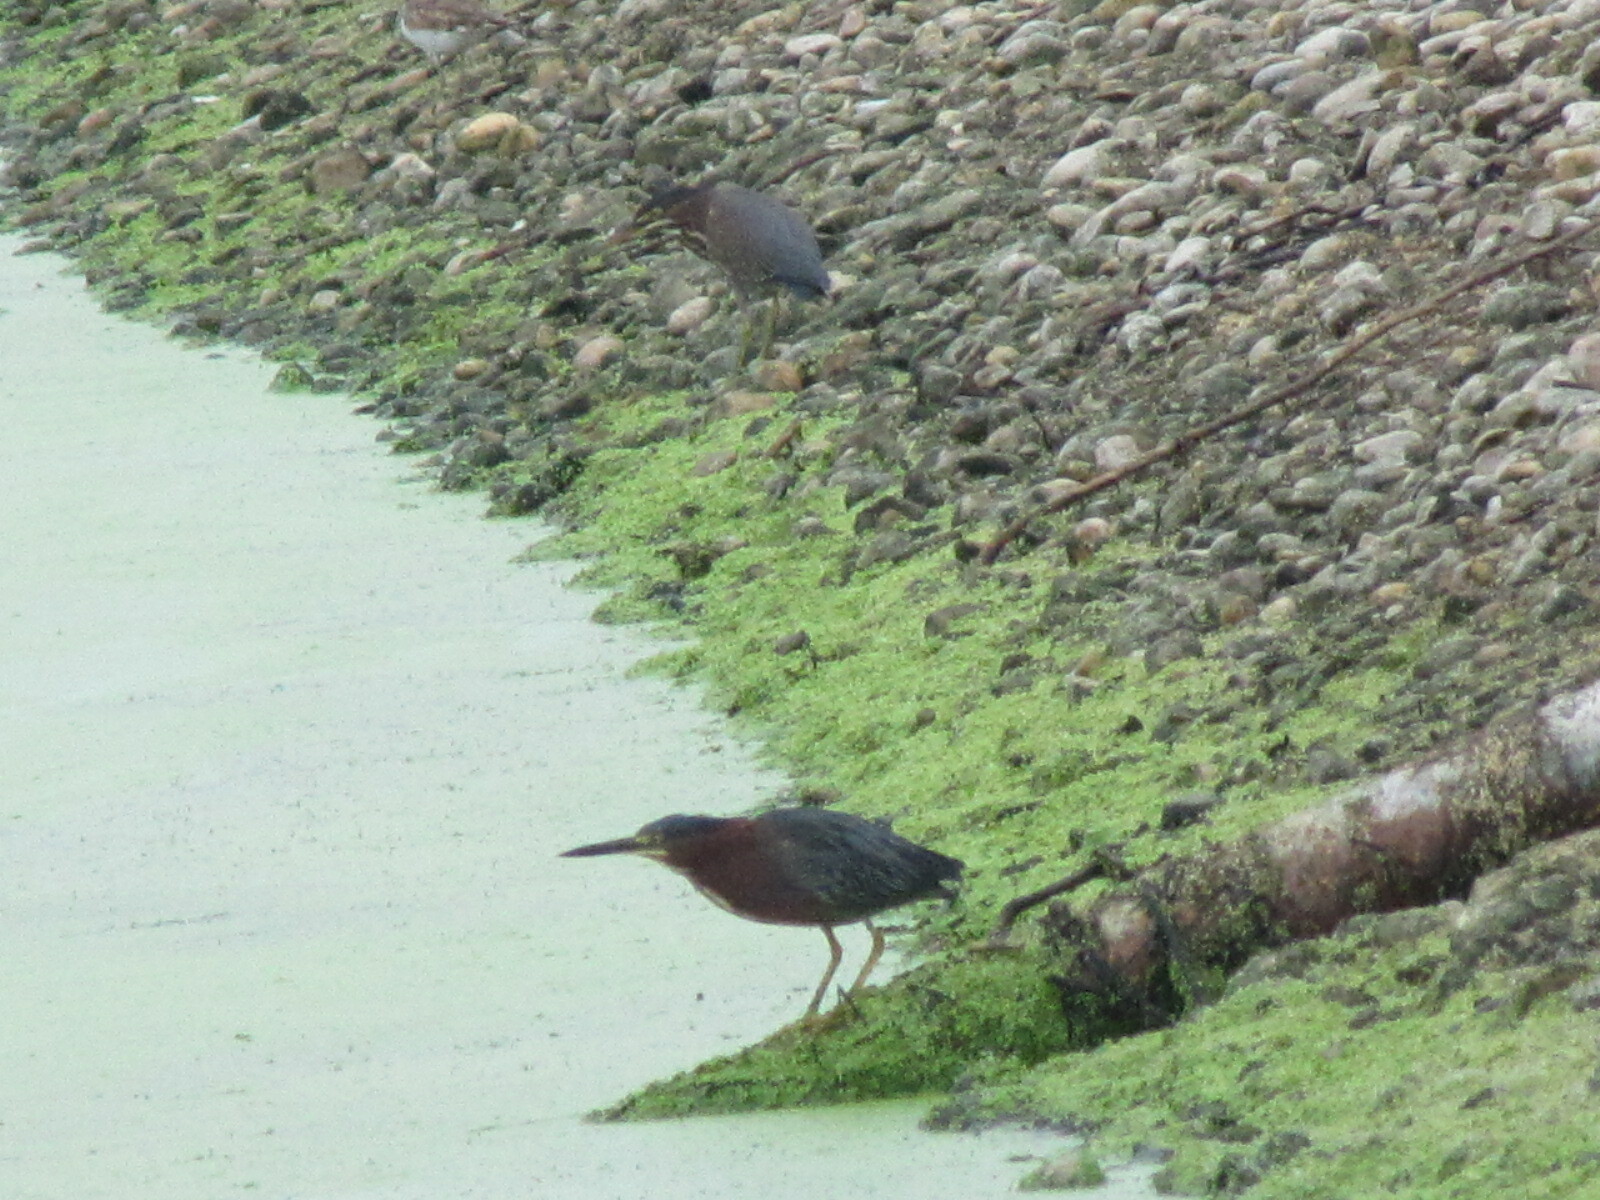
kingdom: Animalia
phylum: Chordata
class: Aves
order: Pelecaniformes
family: Ardeidae
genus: Butorides
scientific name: Butorides virescens
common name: Green heron
